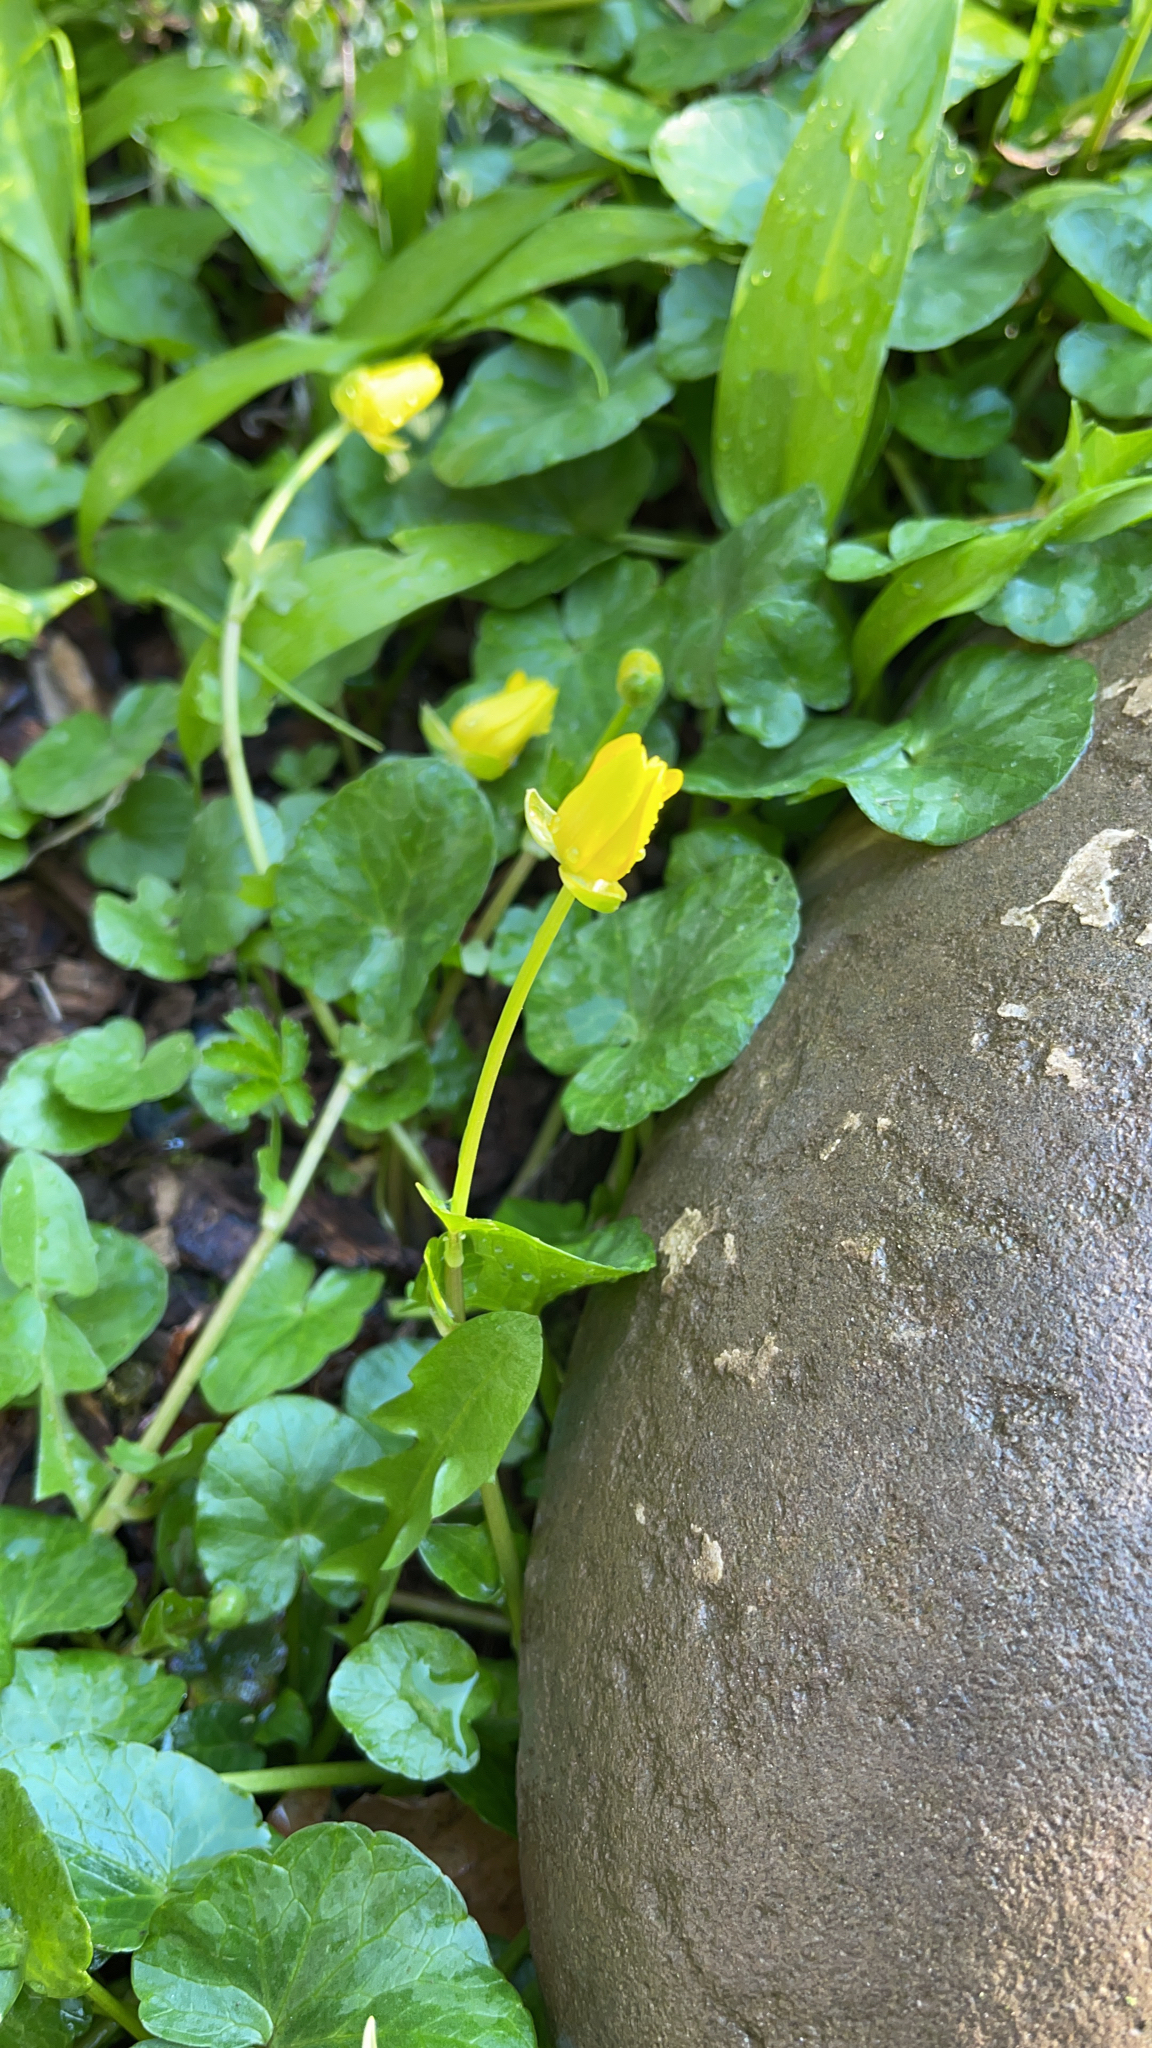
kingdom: Plantae
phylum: Tracheophyta
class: Magnoliopsida
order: Ranunculales
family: Ranunculaceae
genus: Ficaria
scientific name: Ficaria verna
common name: Lesser celandine
